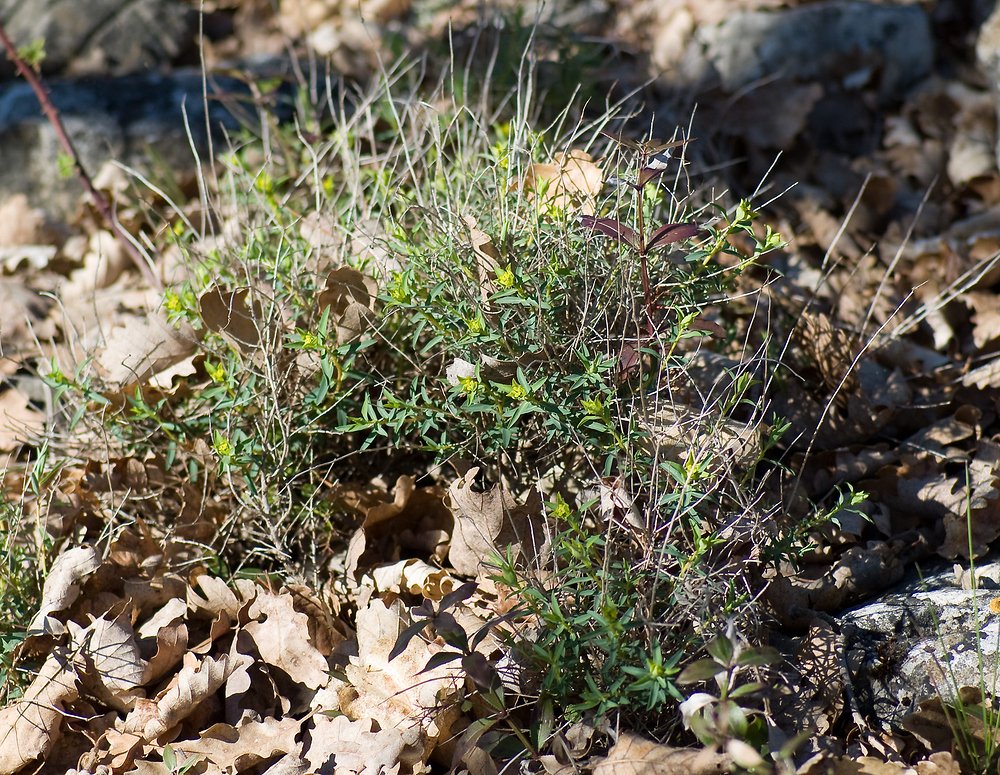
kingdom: Plantae
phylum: Tracheophyta
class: Magnoliopsida
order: Malpighiales
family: Euphorbiaceae
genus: Euphorbia
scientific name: Euphorbia flavicoma
